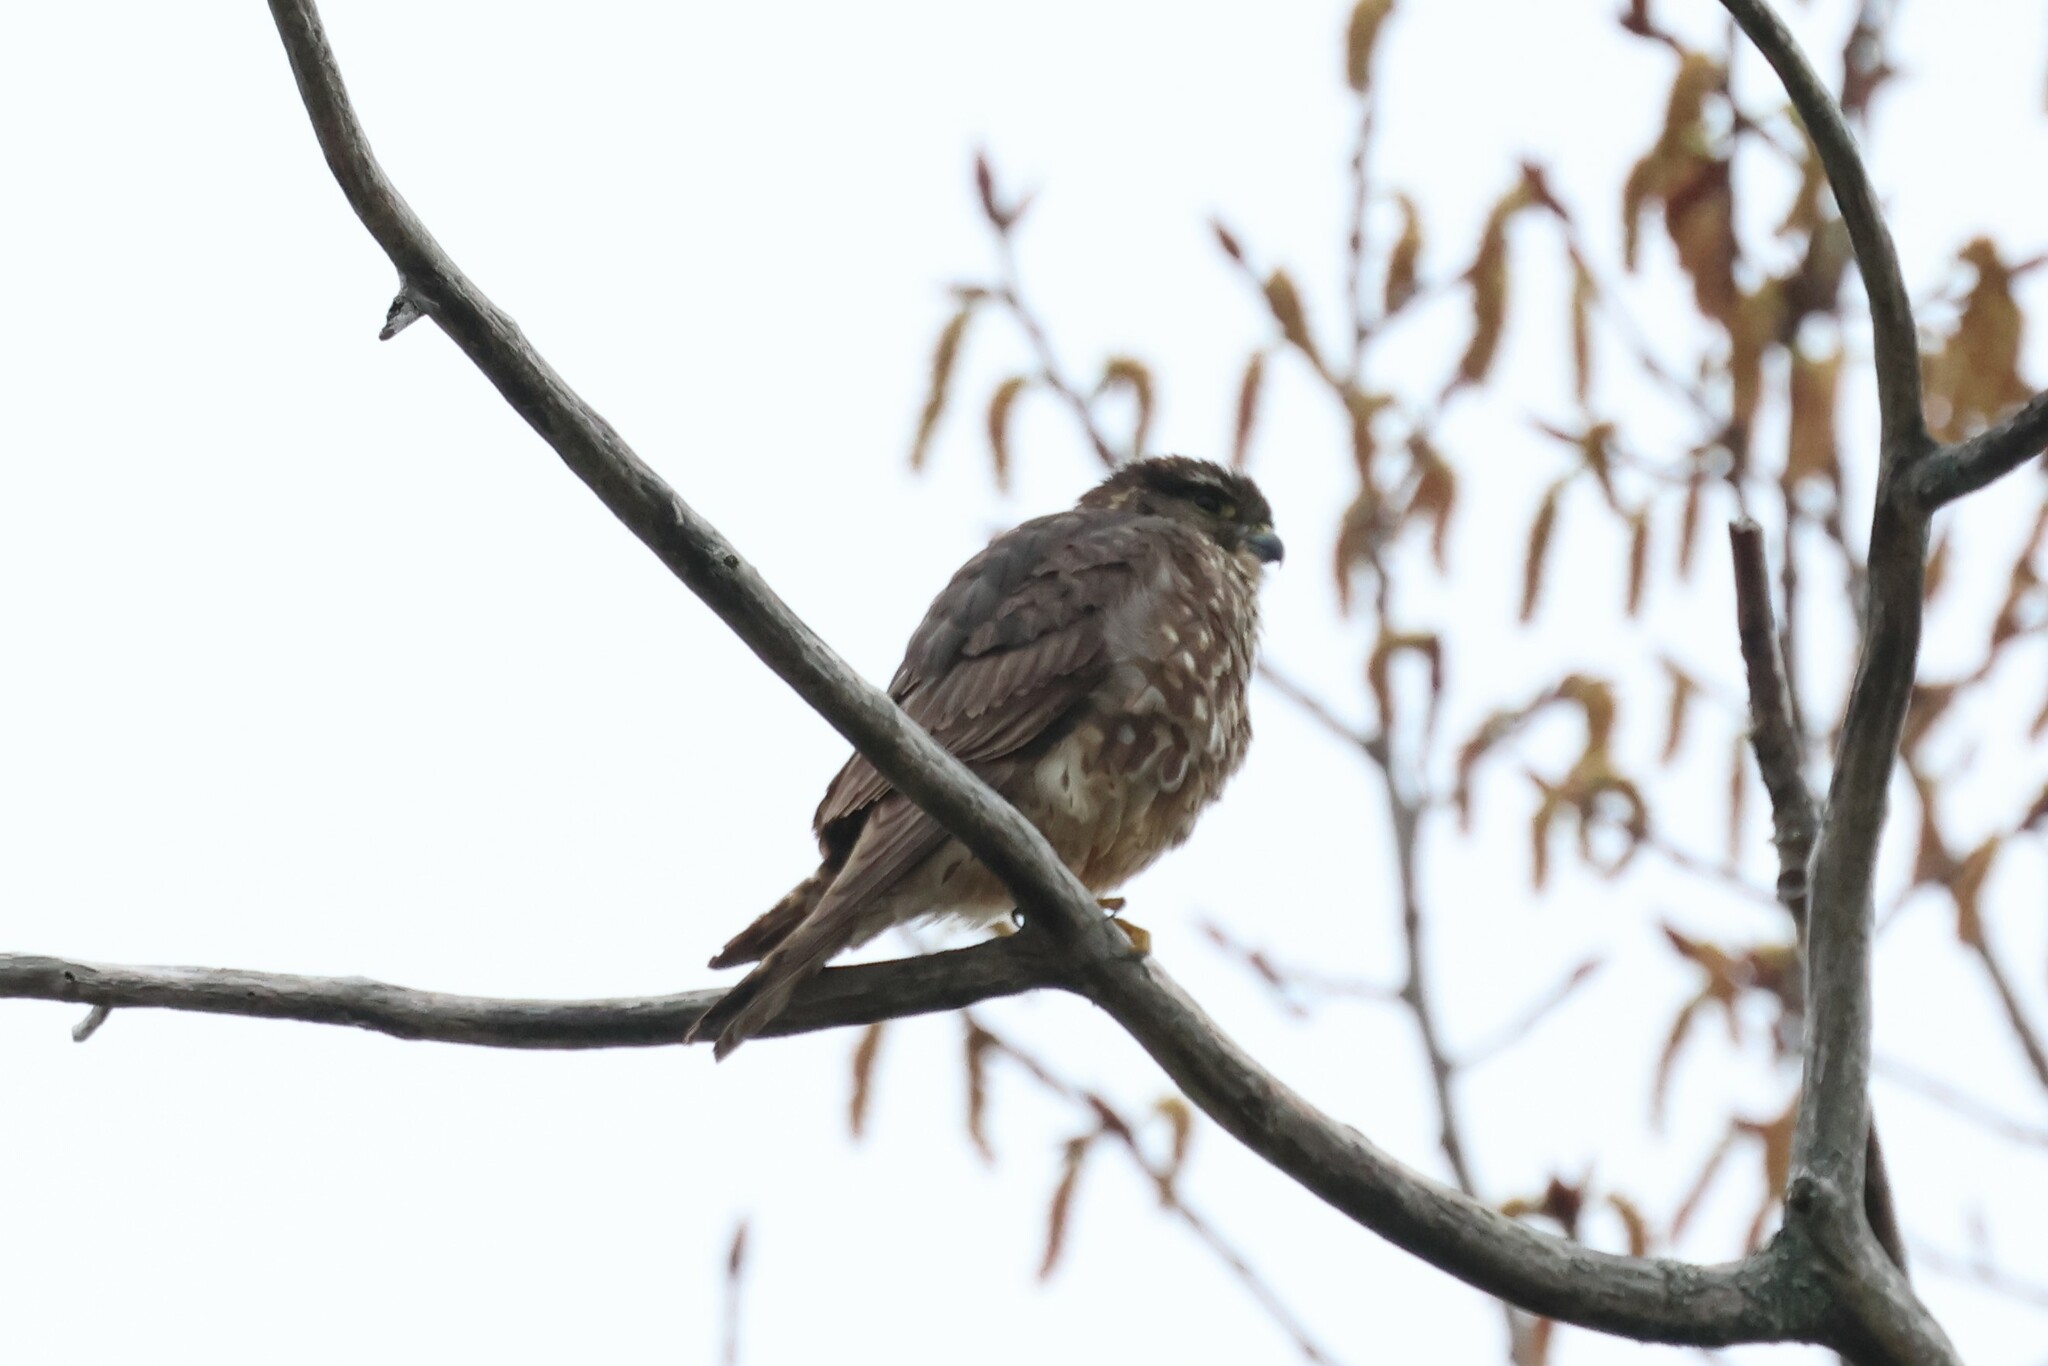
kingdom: Animalia
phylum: Chordata
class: Aves
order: Falconiformes
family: Falconidae
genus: Falco
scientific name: Falco columbarius
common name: Merlin
